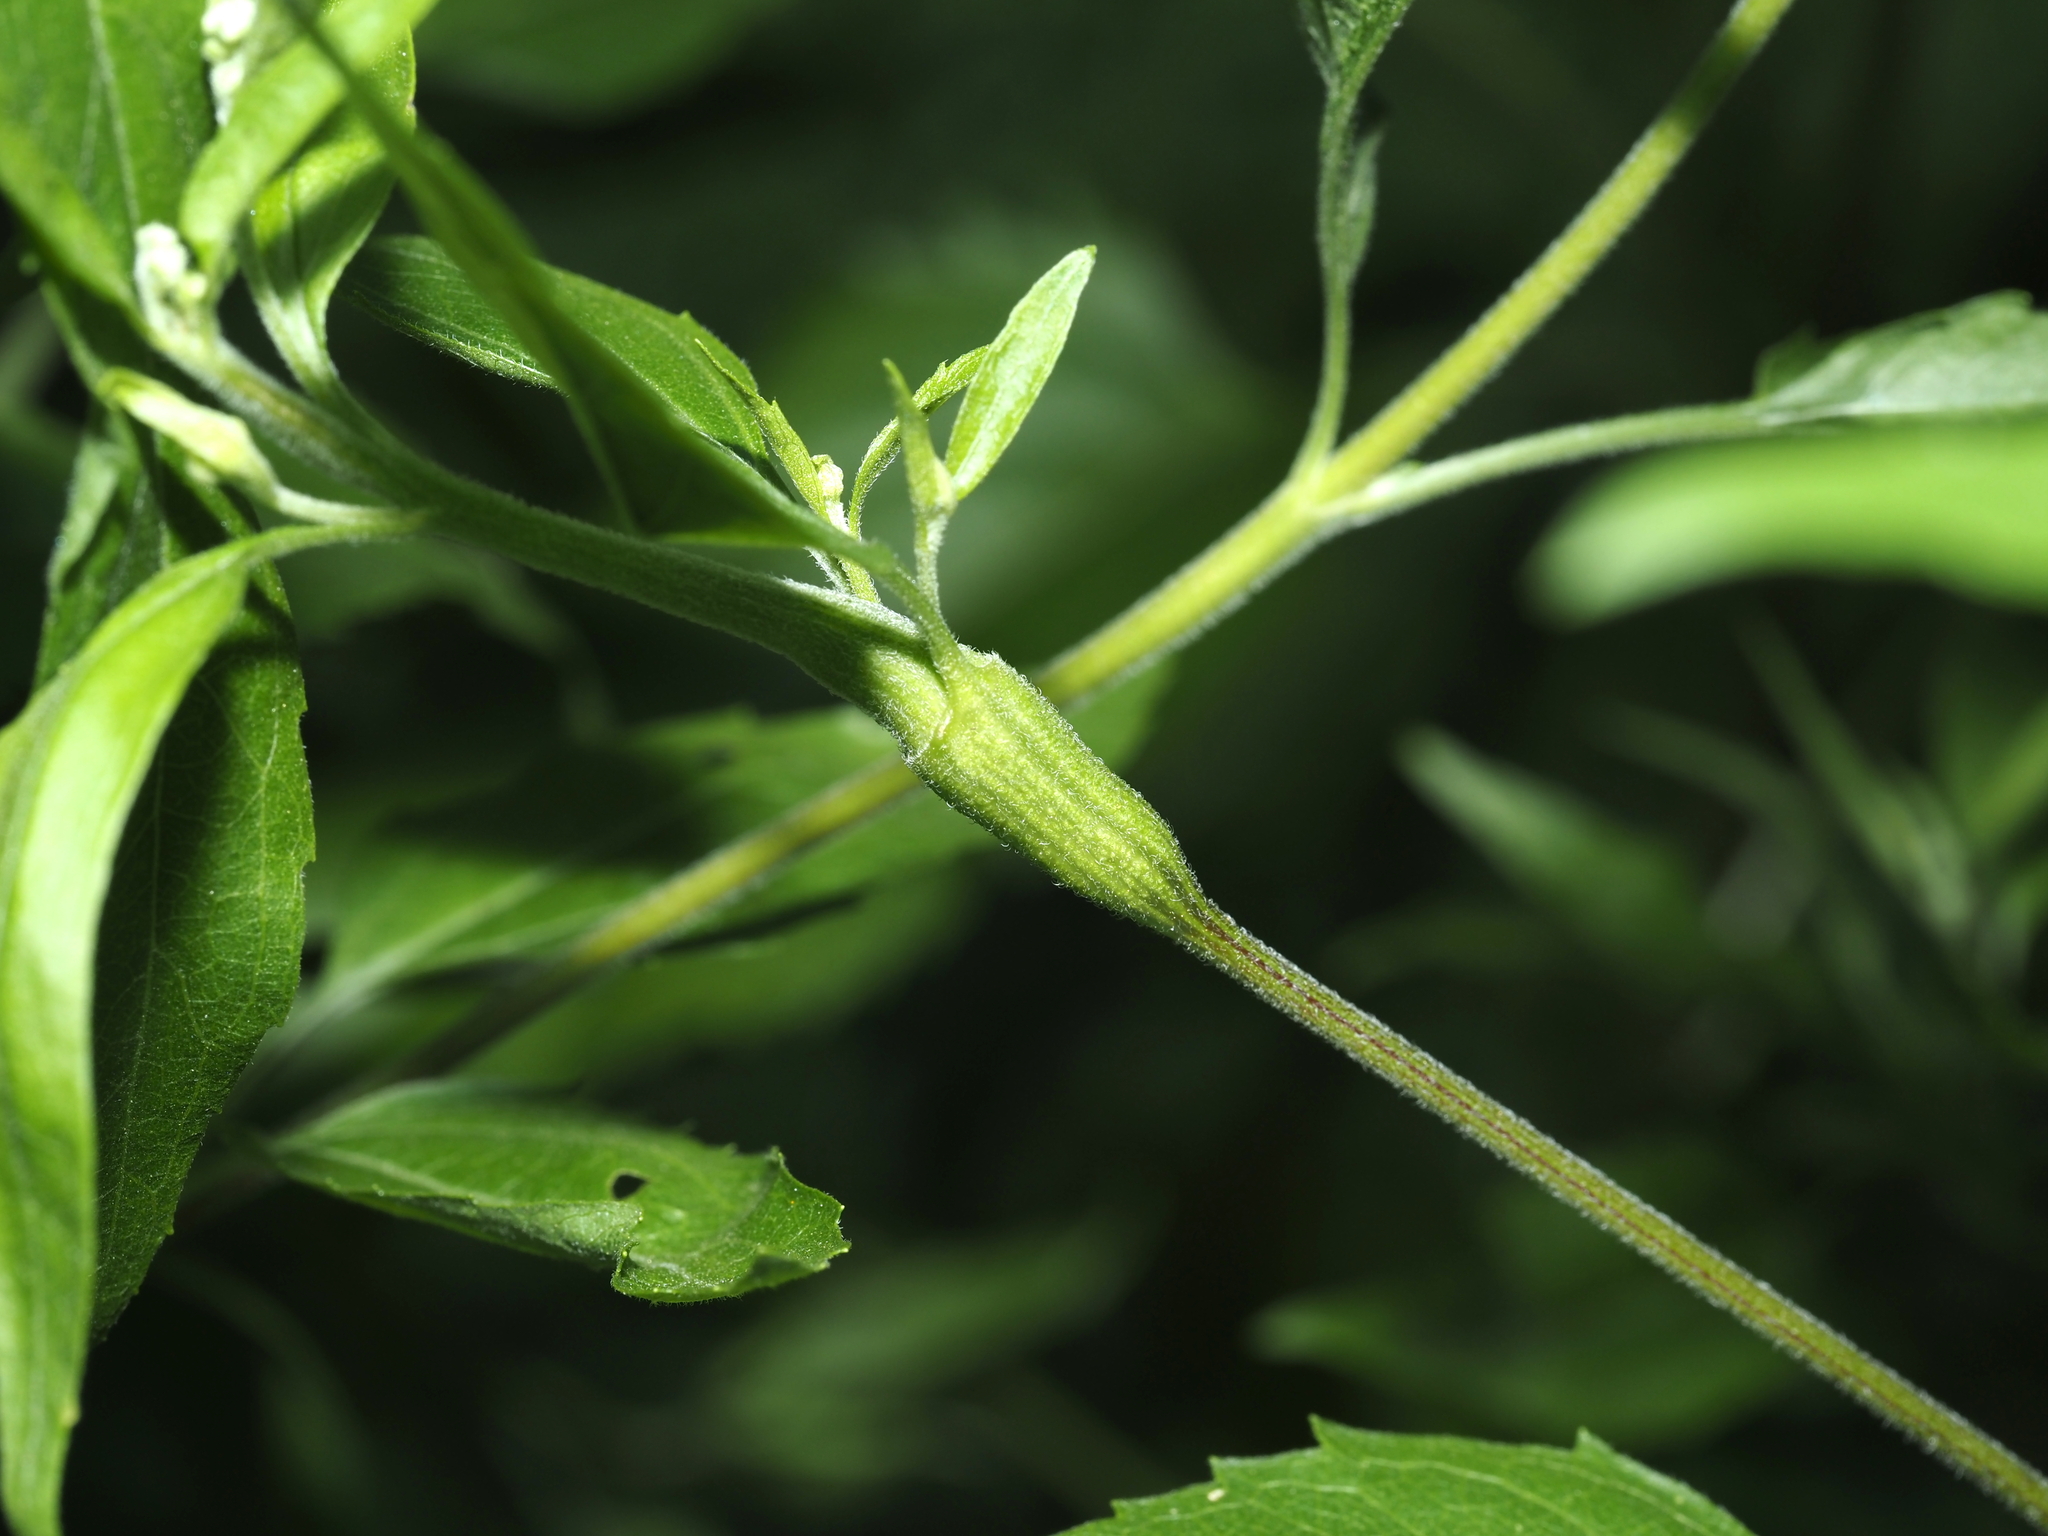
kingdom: Animalia
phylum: Arthropoda
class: Insecta
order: Diptera
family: Cecidomyiidae
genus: Neolasioptera
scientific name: Neolasioptera eupatorii
